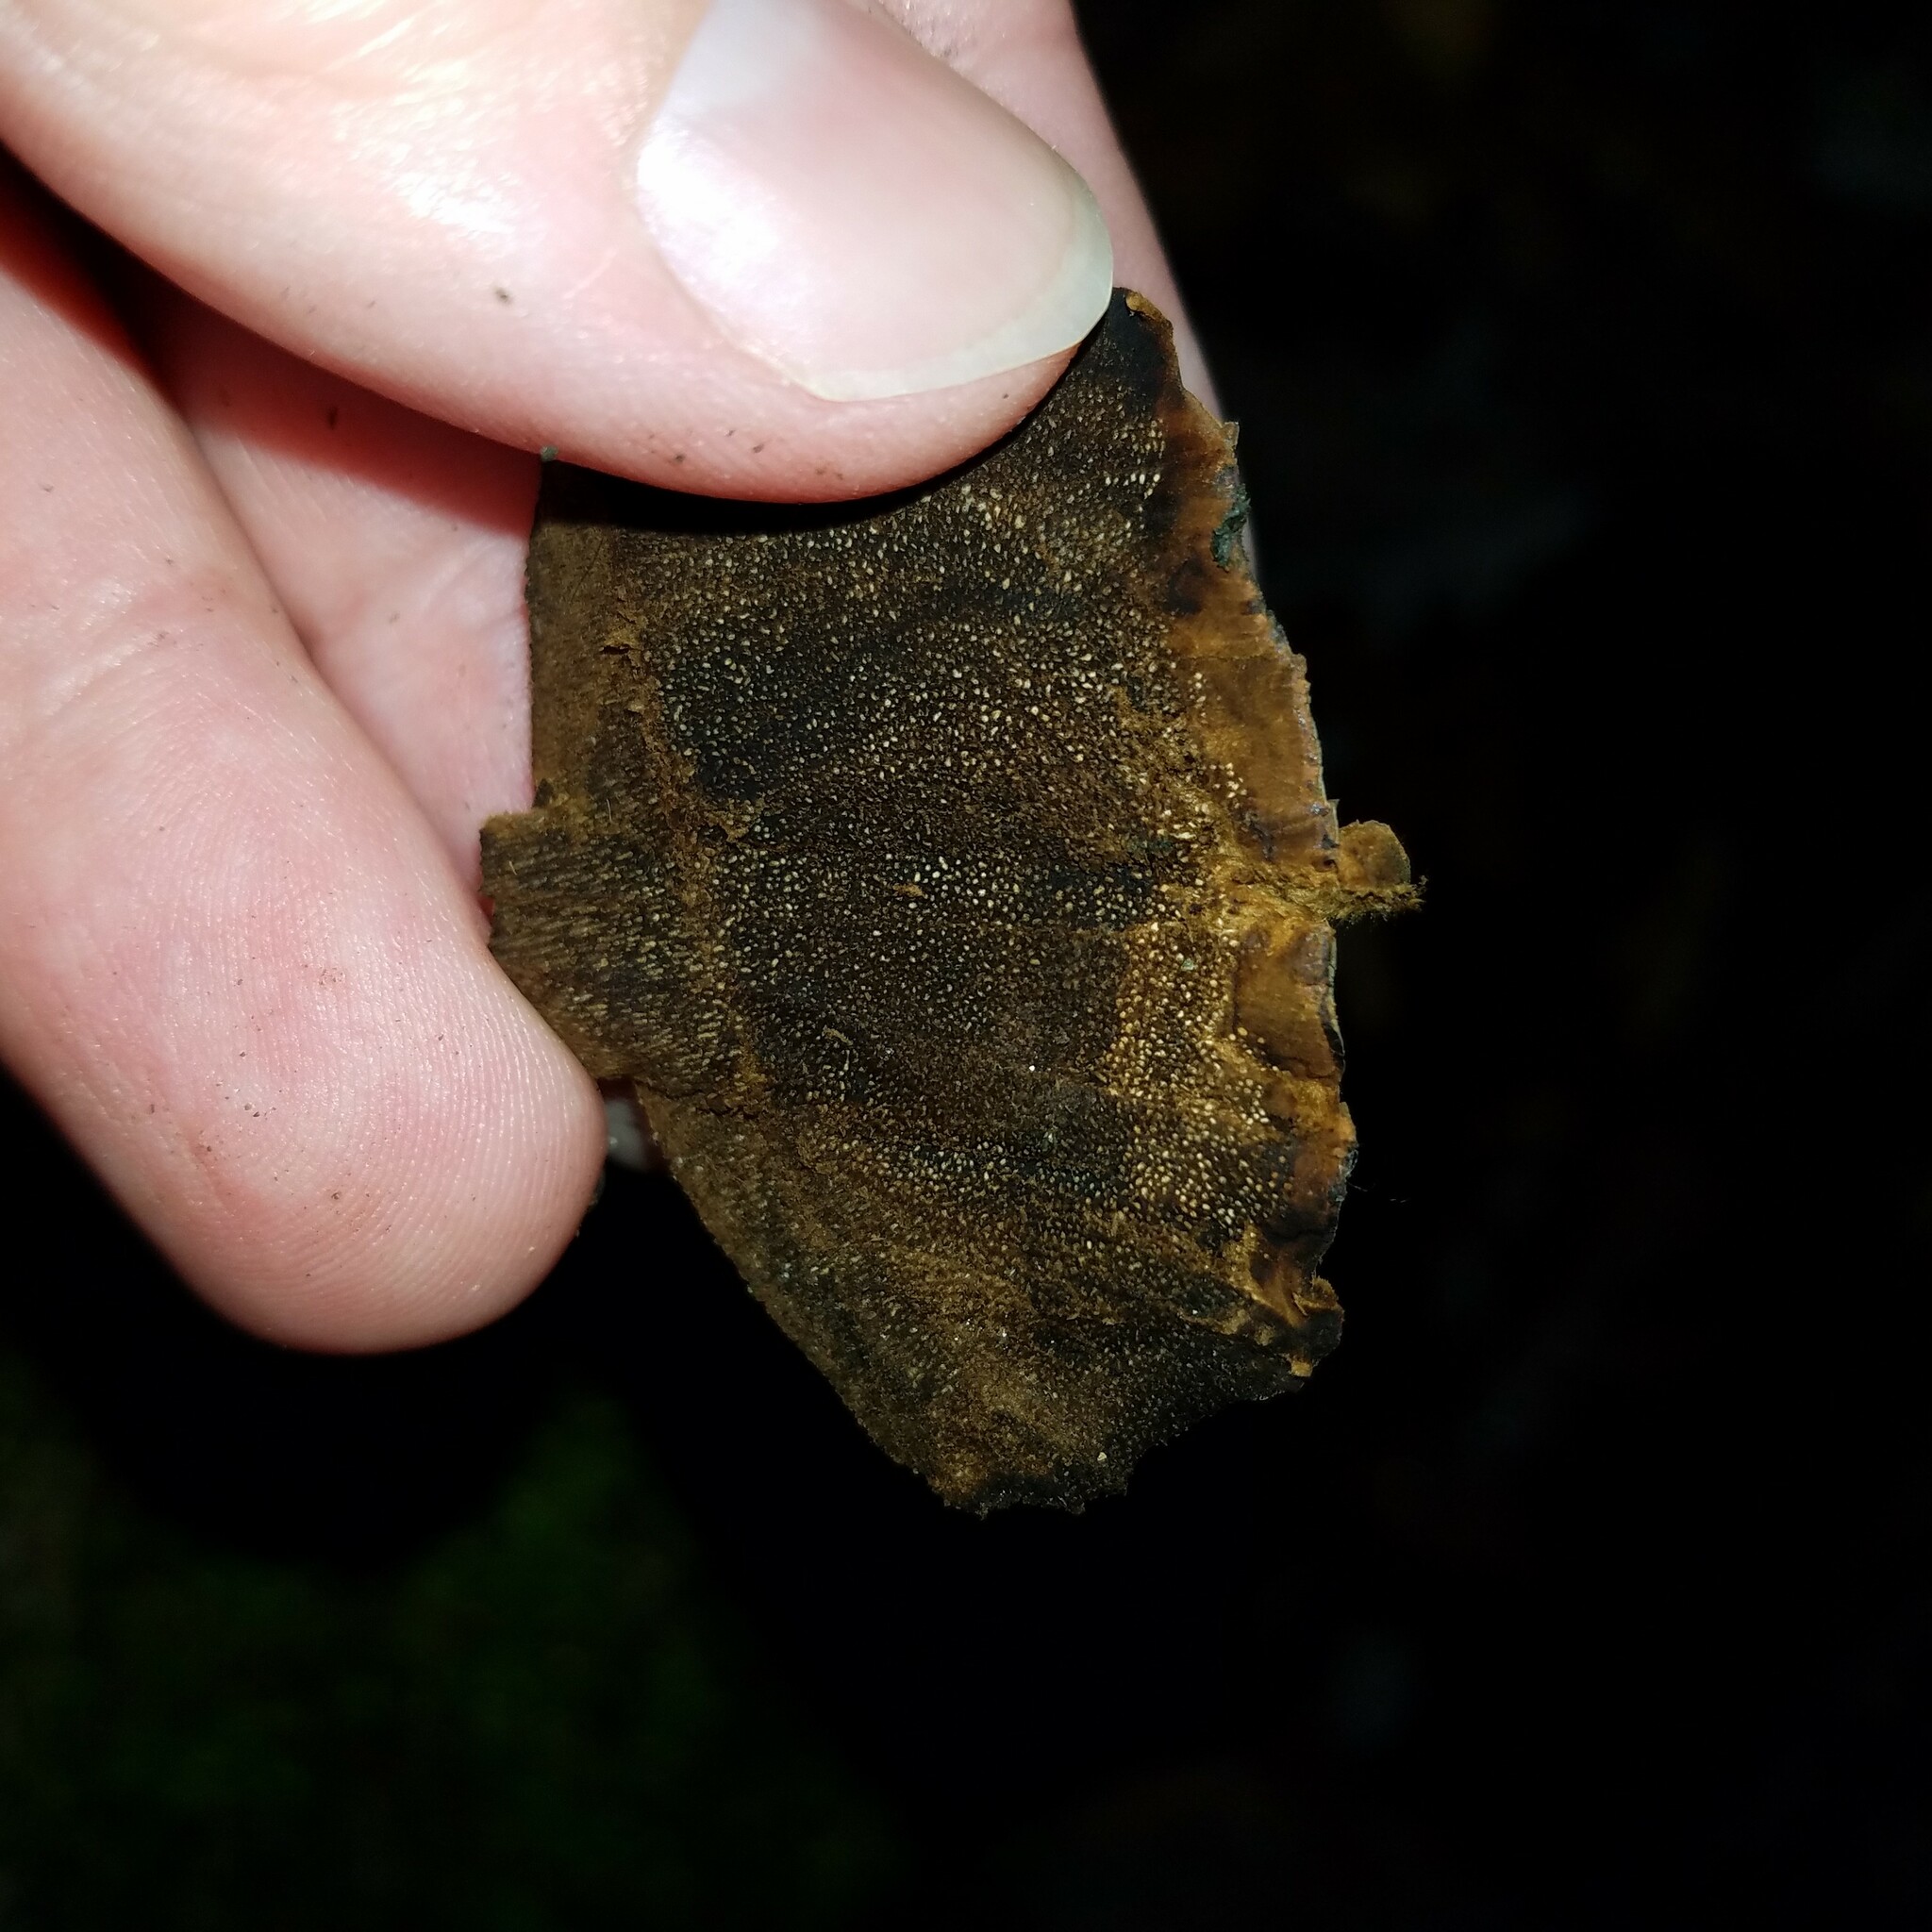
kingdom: Fungi
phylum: Basidiomycota
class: Agaricomycetes
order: Polyporales
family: Polyporaceae
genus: Fomes
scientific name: Fomes fasciatus
